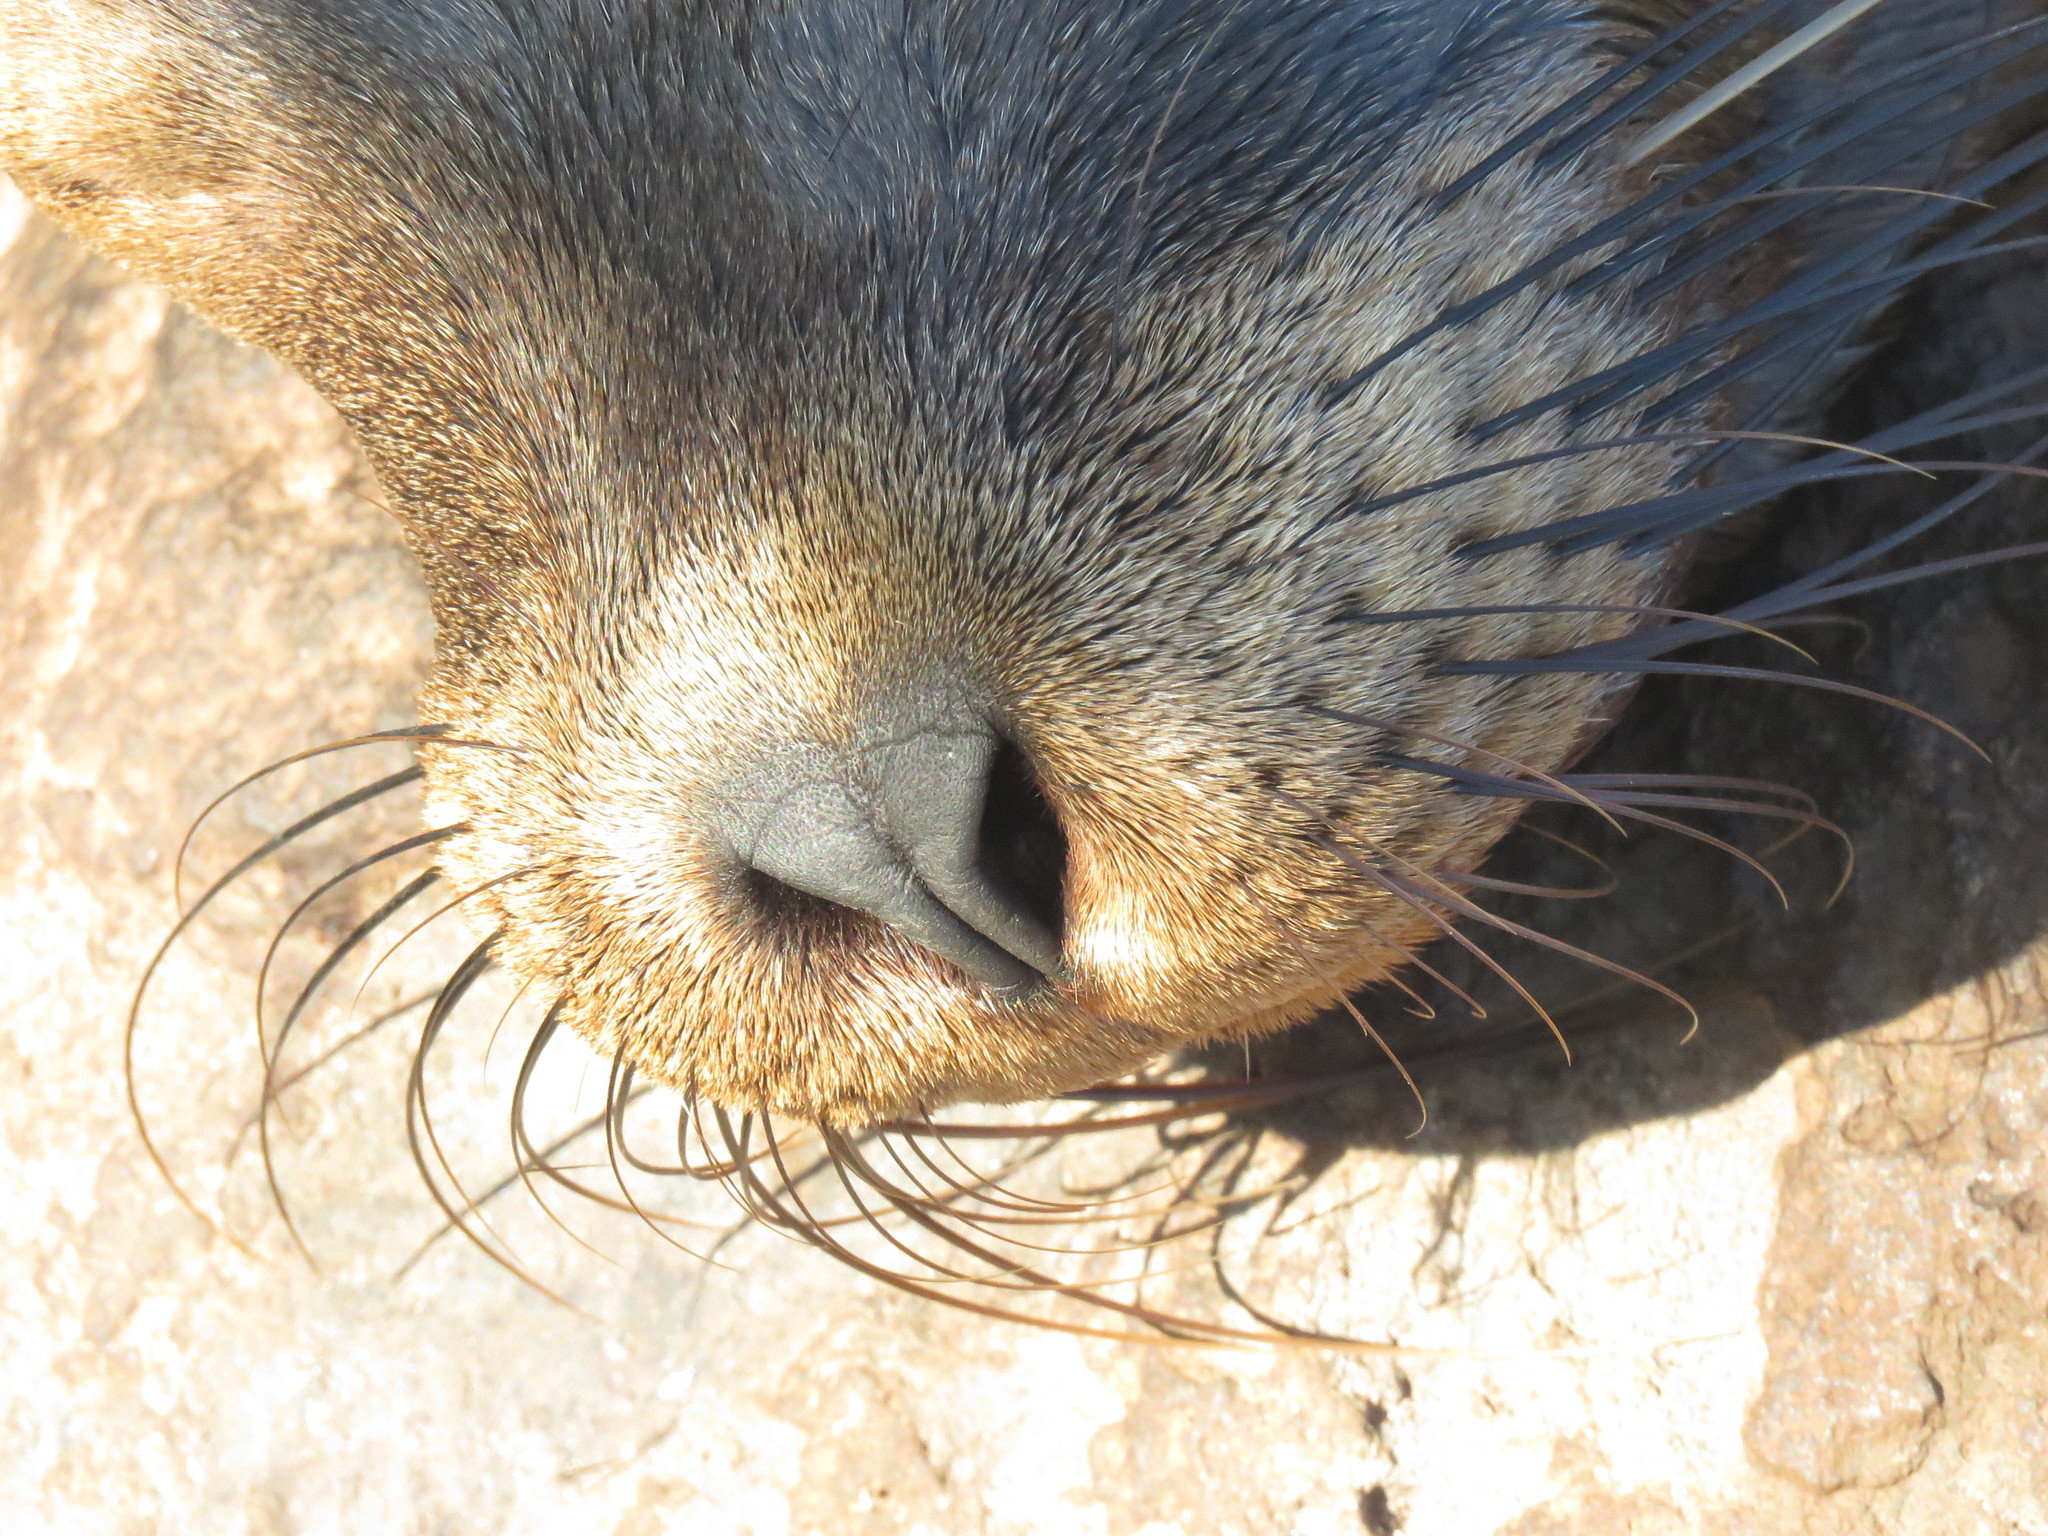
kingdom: Animalia
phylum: Chordata
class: Mammalia
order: Carnivora
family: Otariidae
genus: Zalophus
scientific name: Zalophus wollebaeki
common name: Galapagos sea lion
